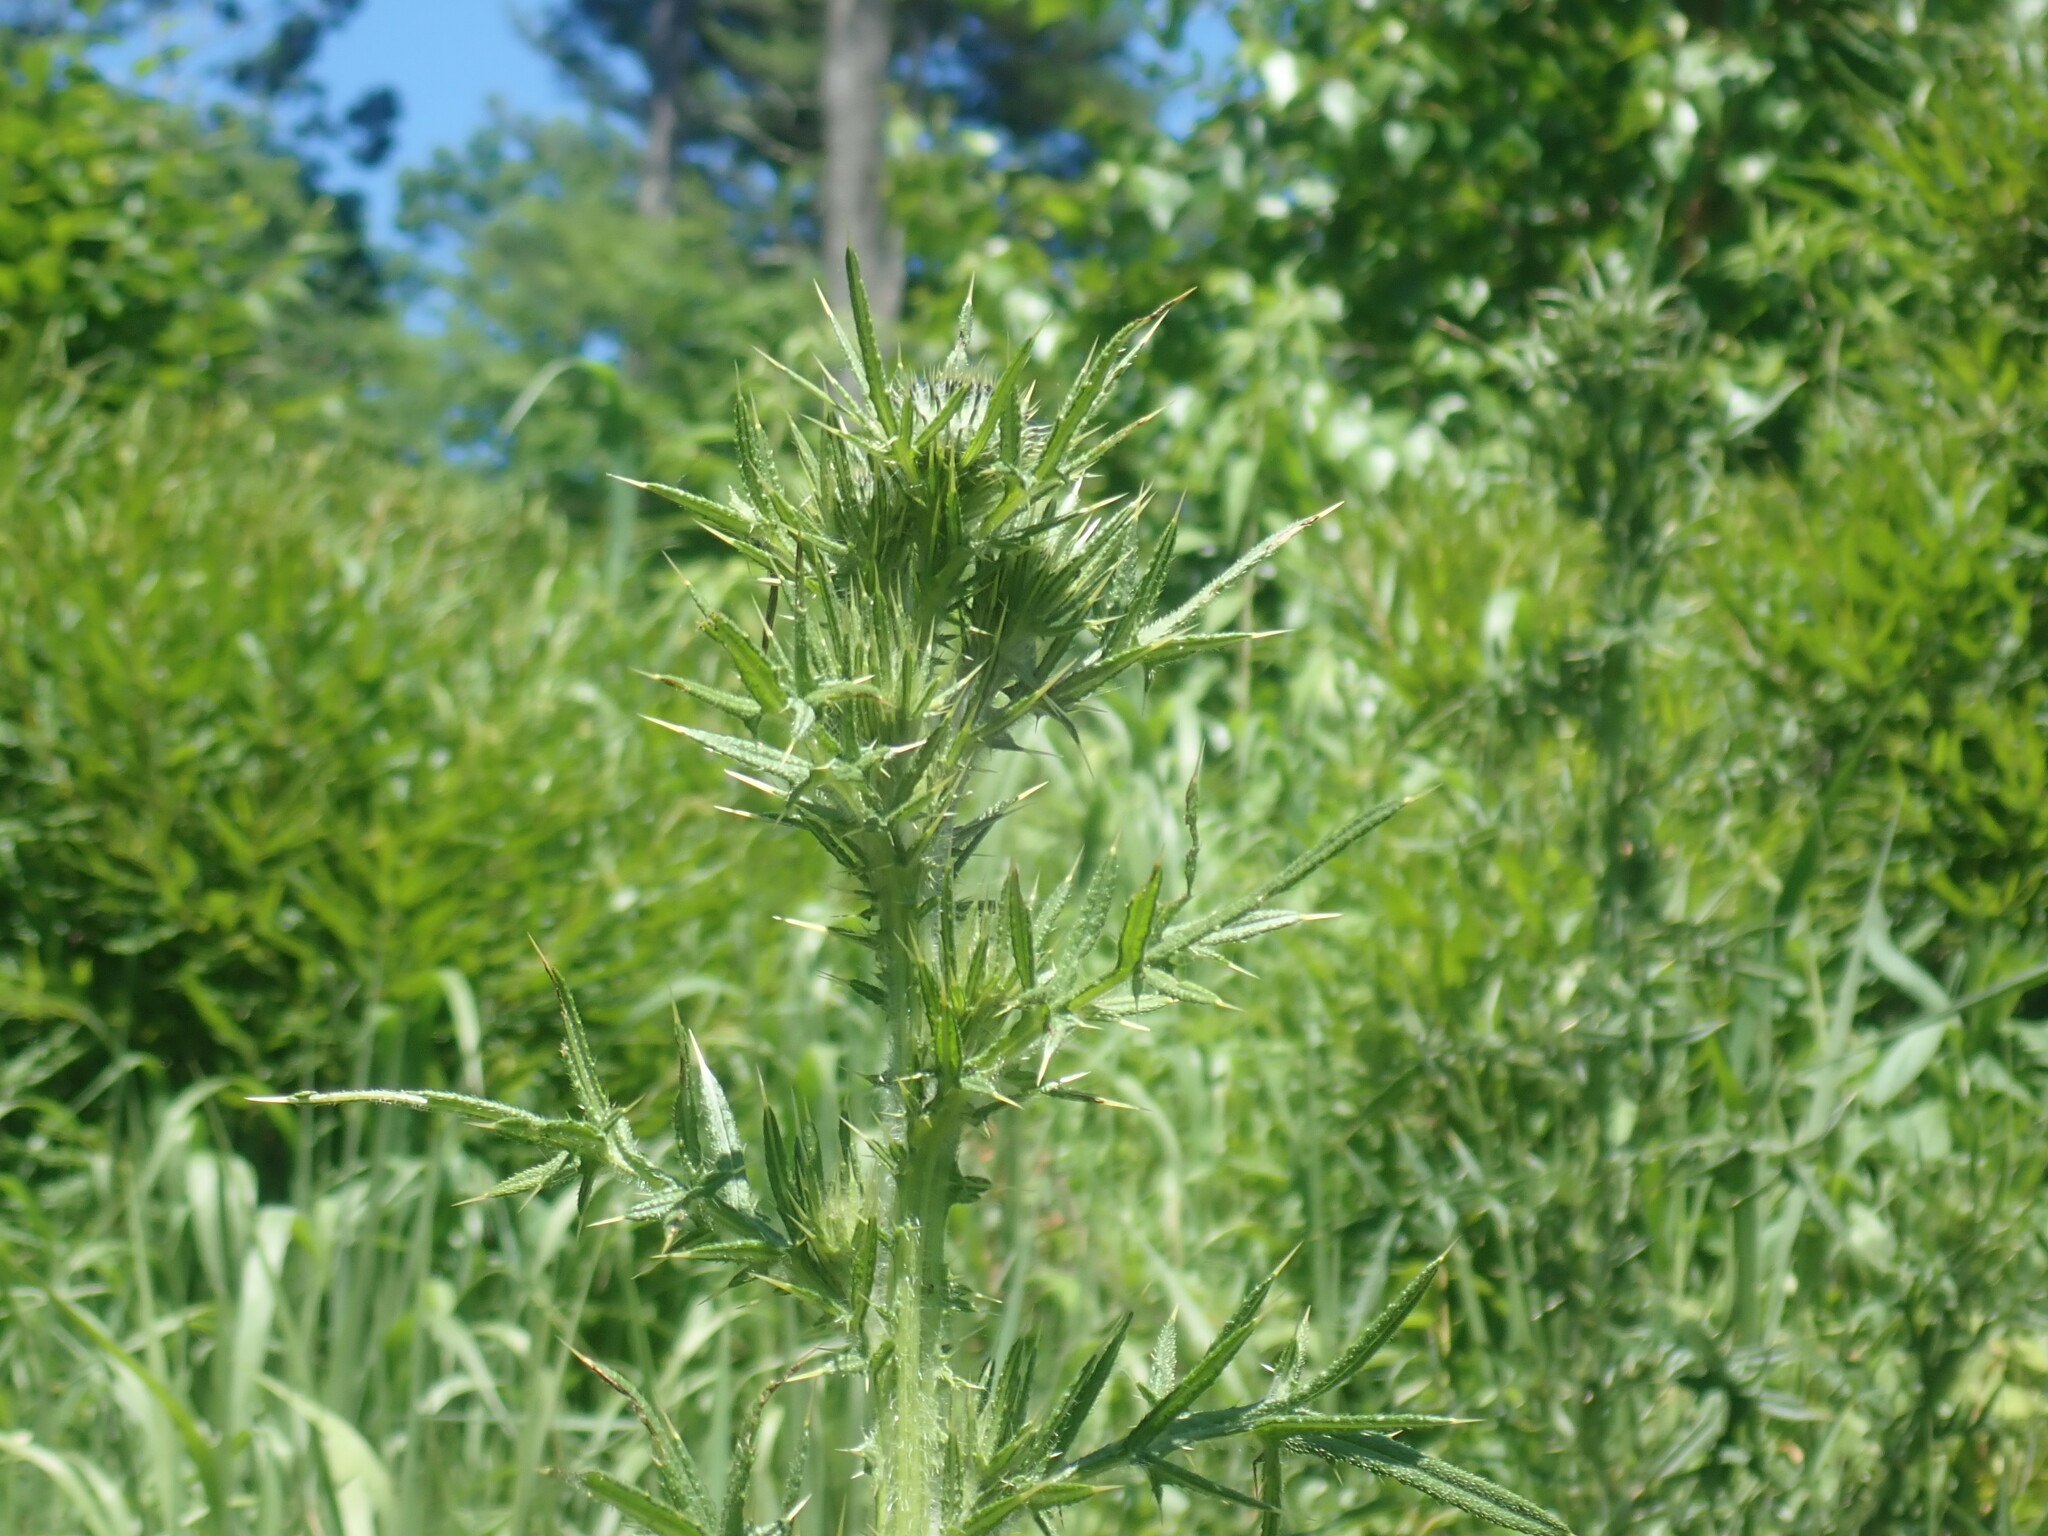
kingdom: Plantae
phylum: Tracheophyta
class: Magnoliopsida
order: Asterales
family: Asteraceae
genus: Cirsium
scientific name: Cirsium vulgare
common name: Bull thistle
